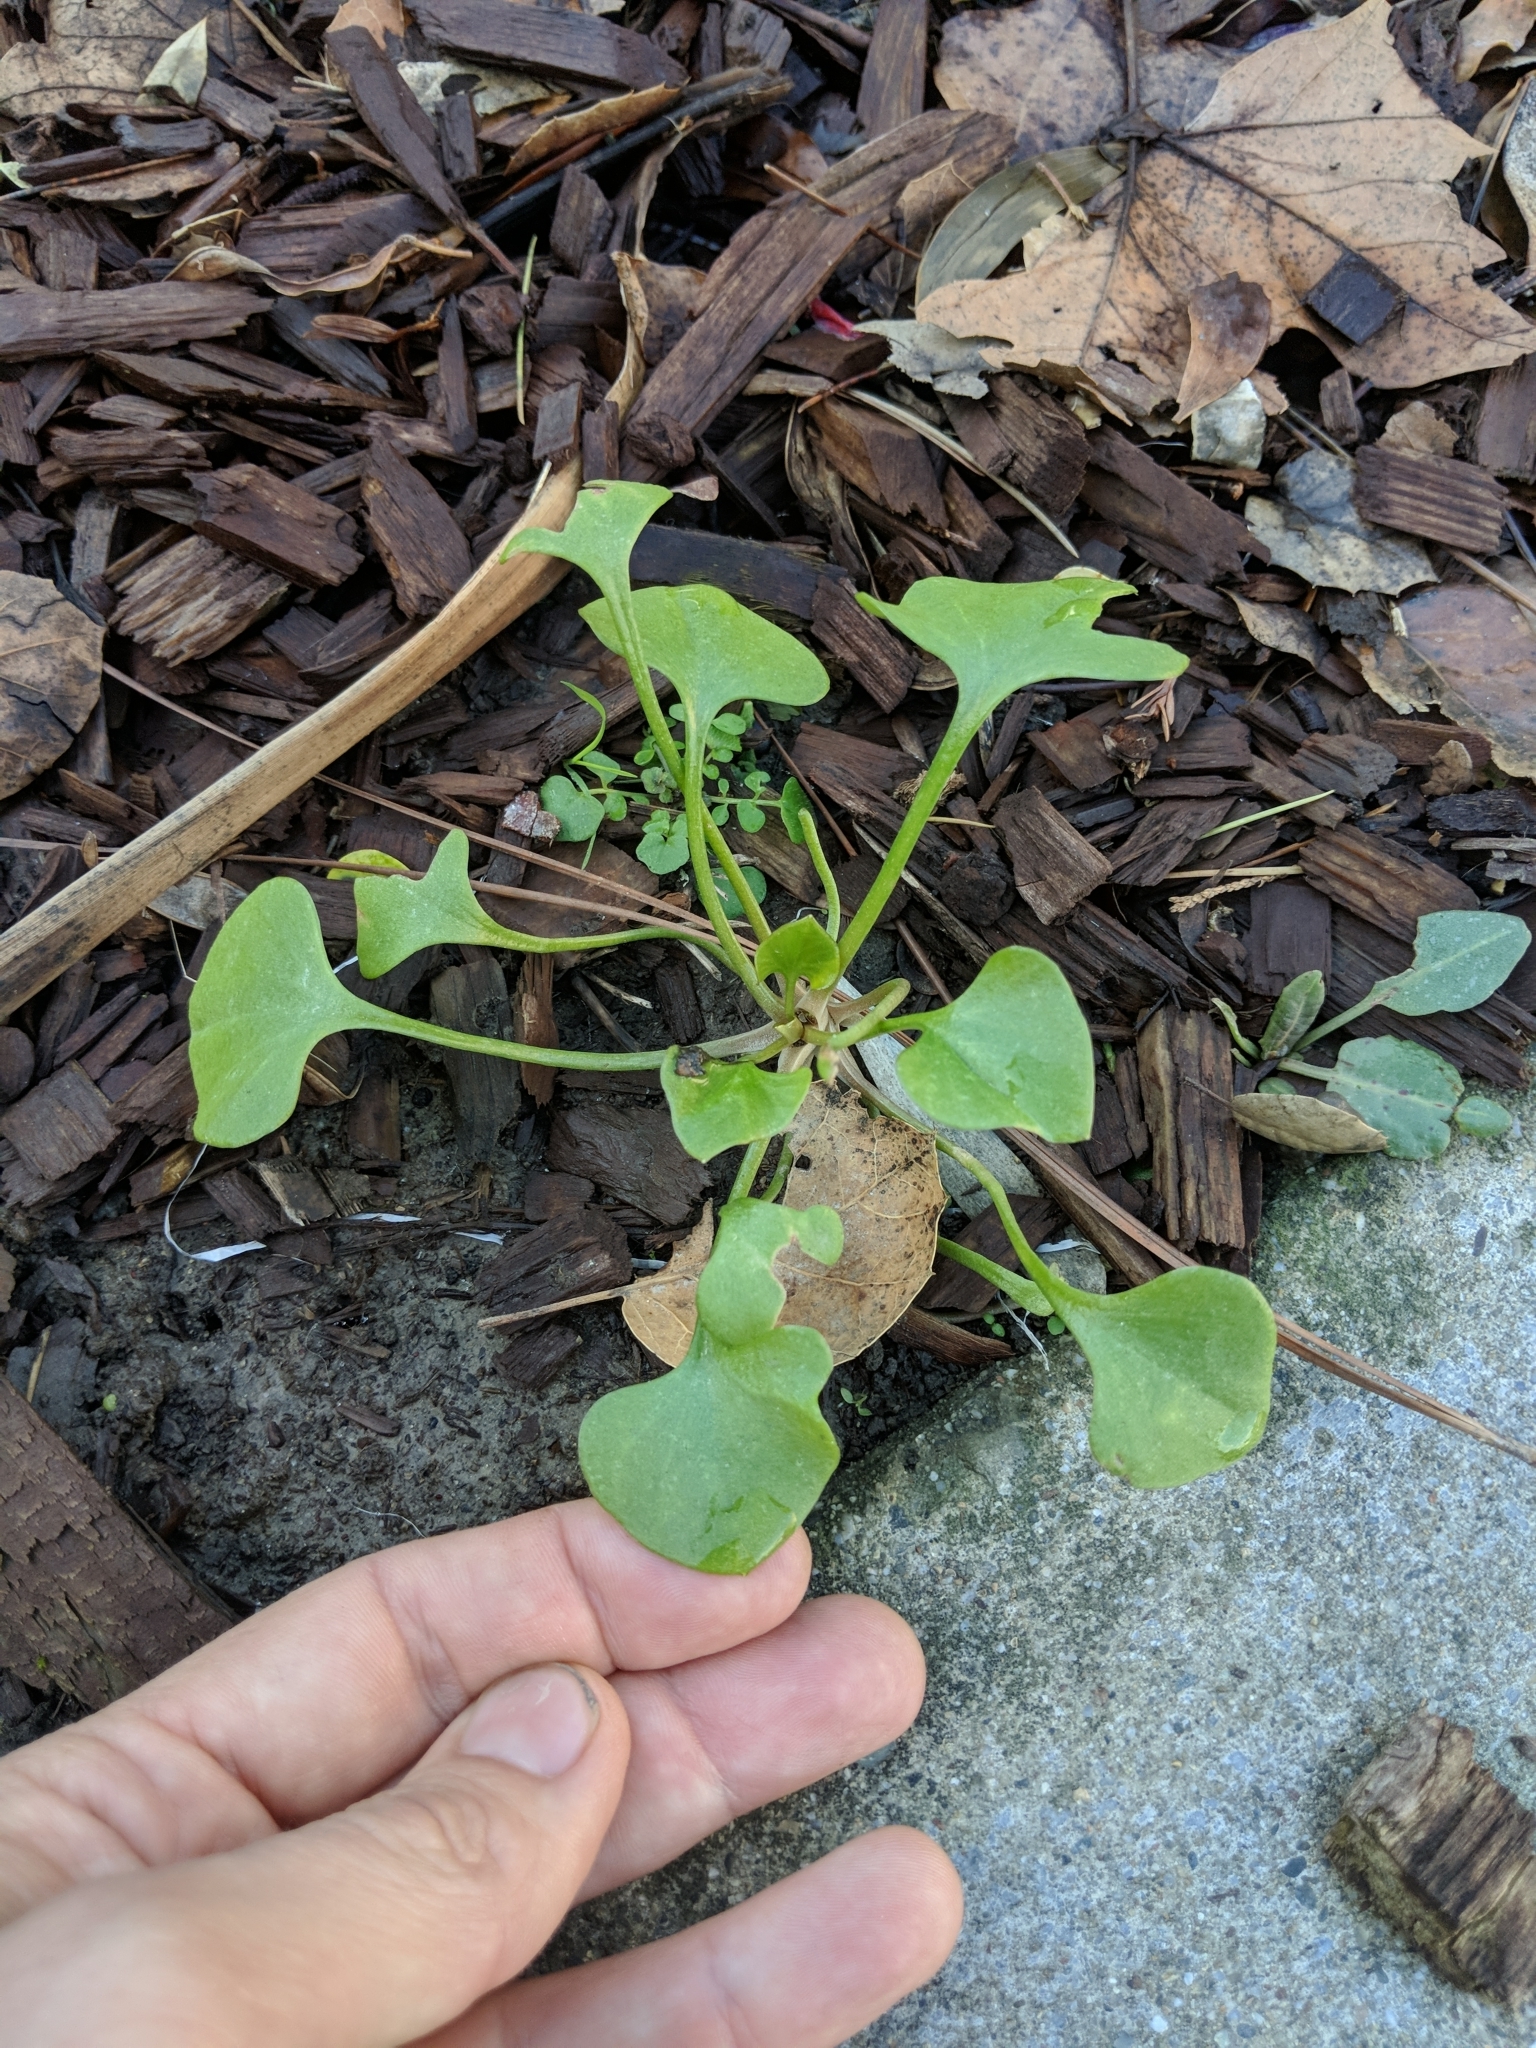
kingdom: Plantae
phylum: Tracheophyta
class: Magnoliopsida
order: Caryophyllales
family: Montiaceae
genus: Claytonia
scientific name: Claytonia perfoliata
